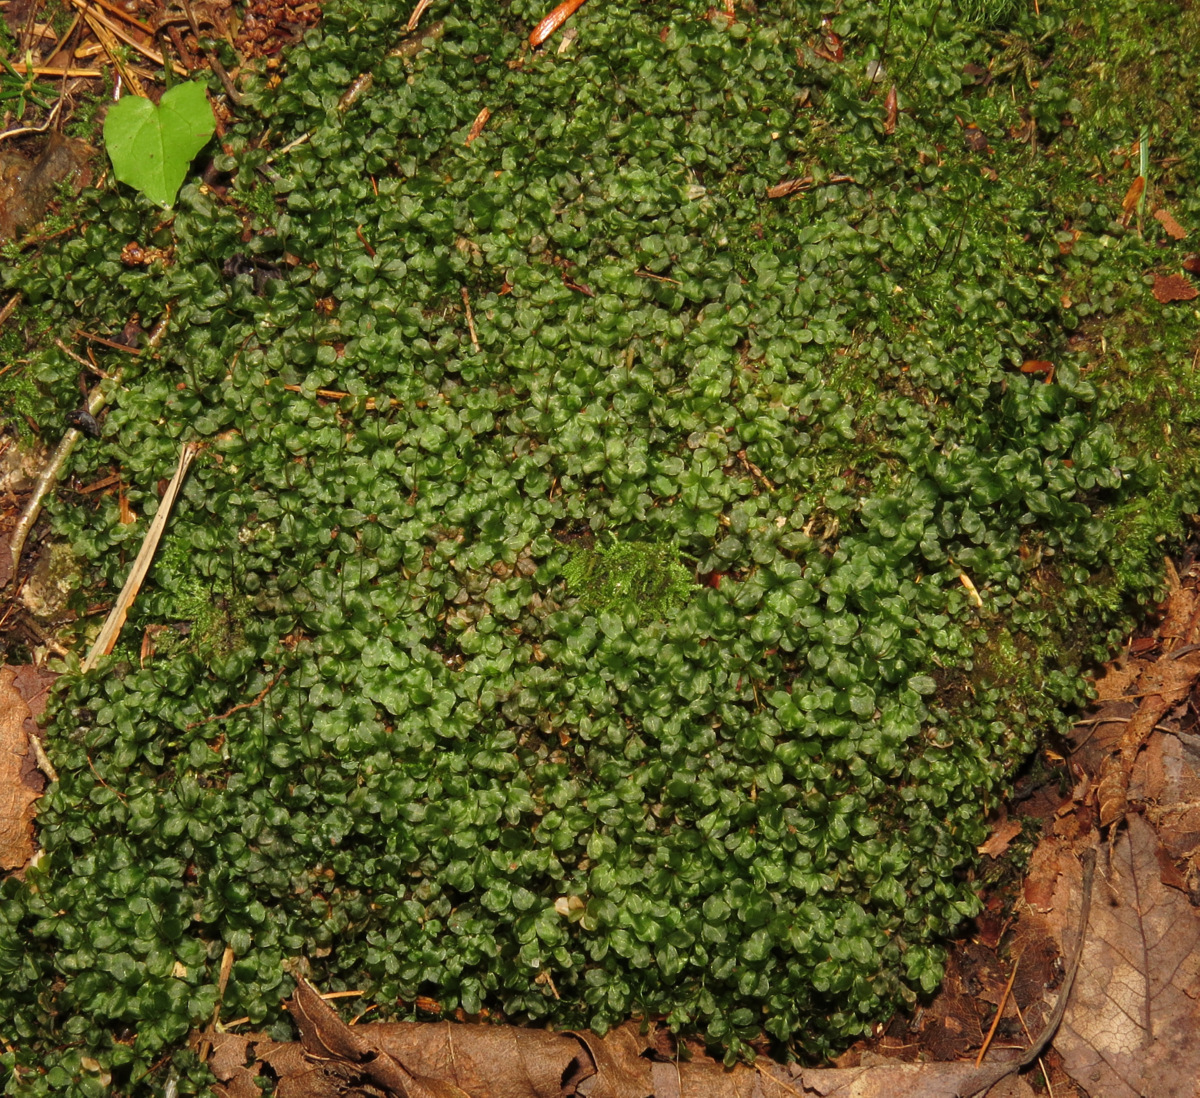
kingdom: Plantae
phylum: Bryophyta
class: Bryopsida
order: Bryales
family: Mniaceae
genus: Rhizomnium
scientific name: Rhizomnium punctatum
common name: Dotted leafy moss
